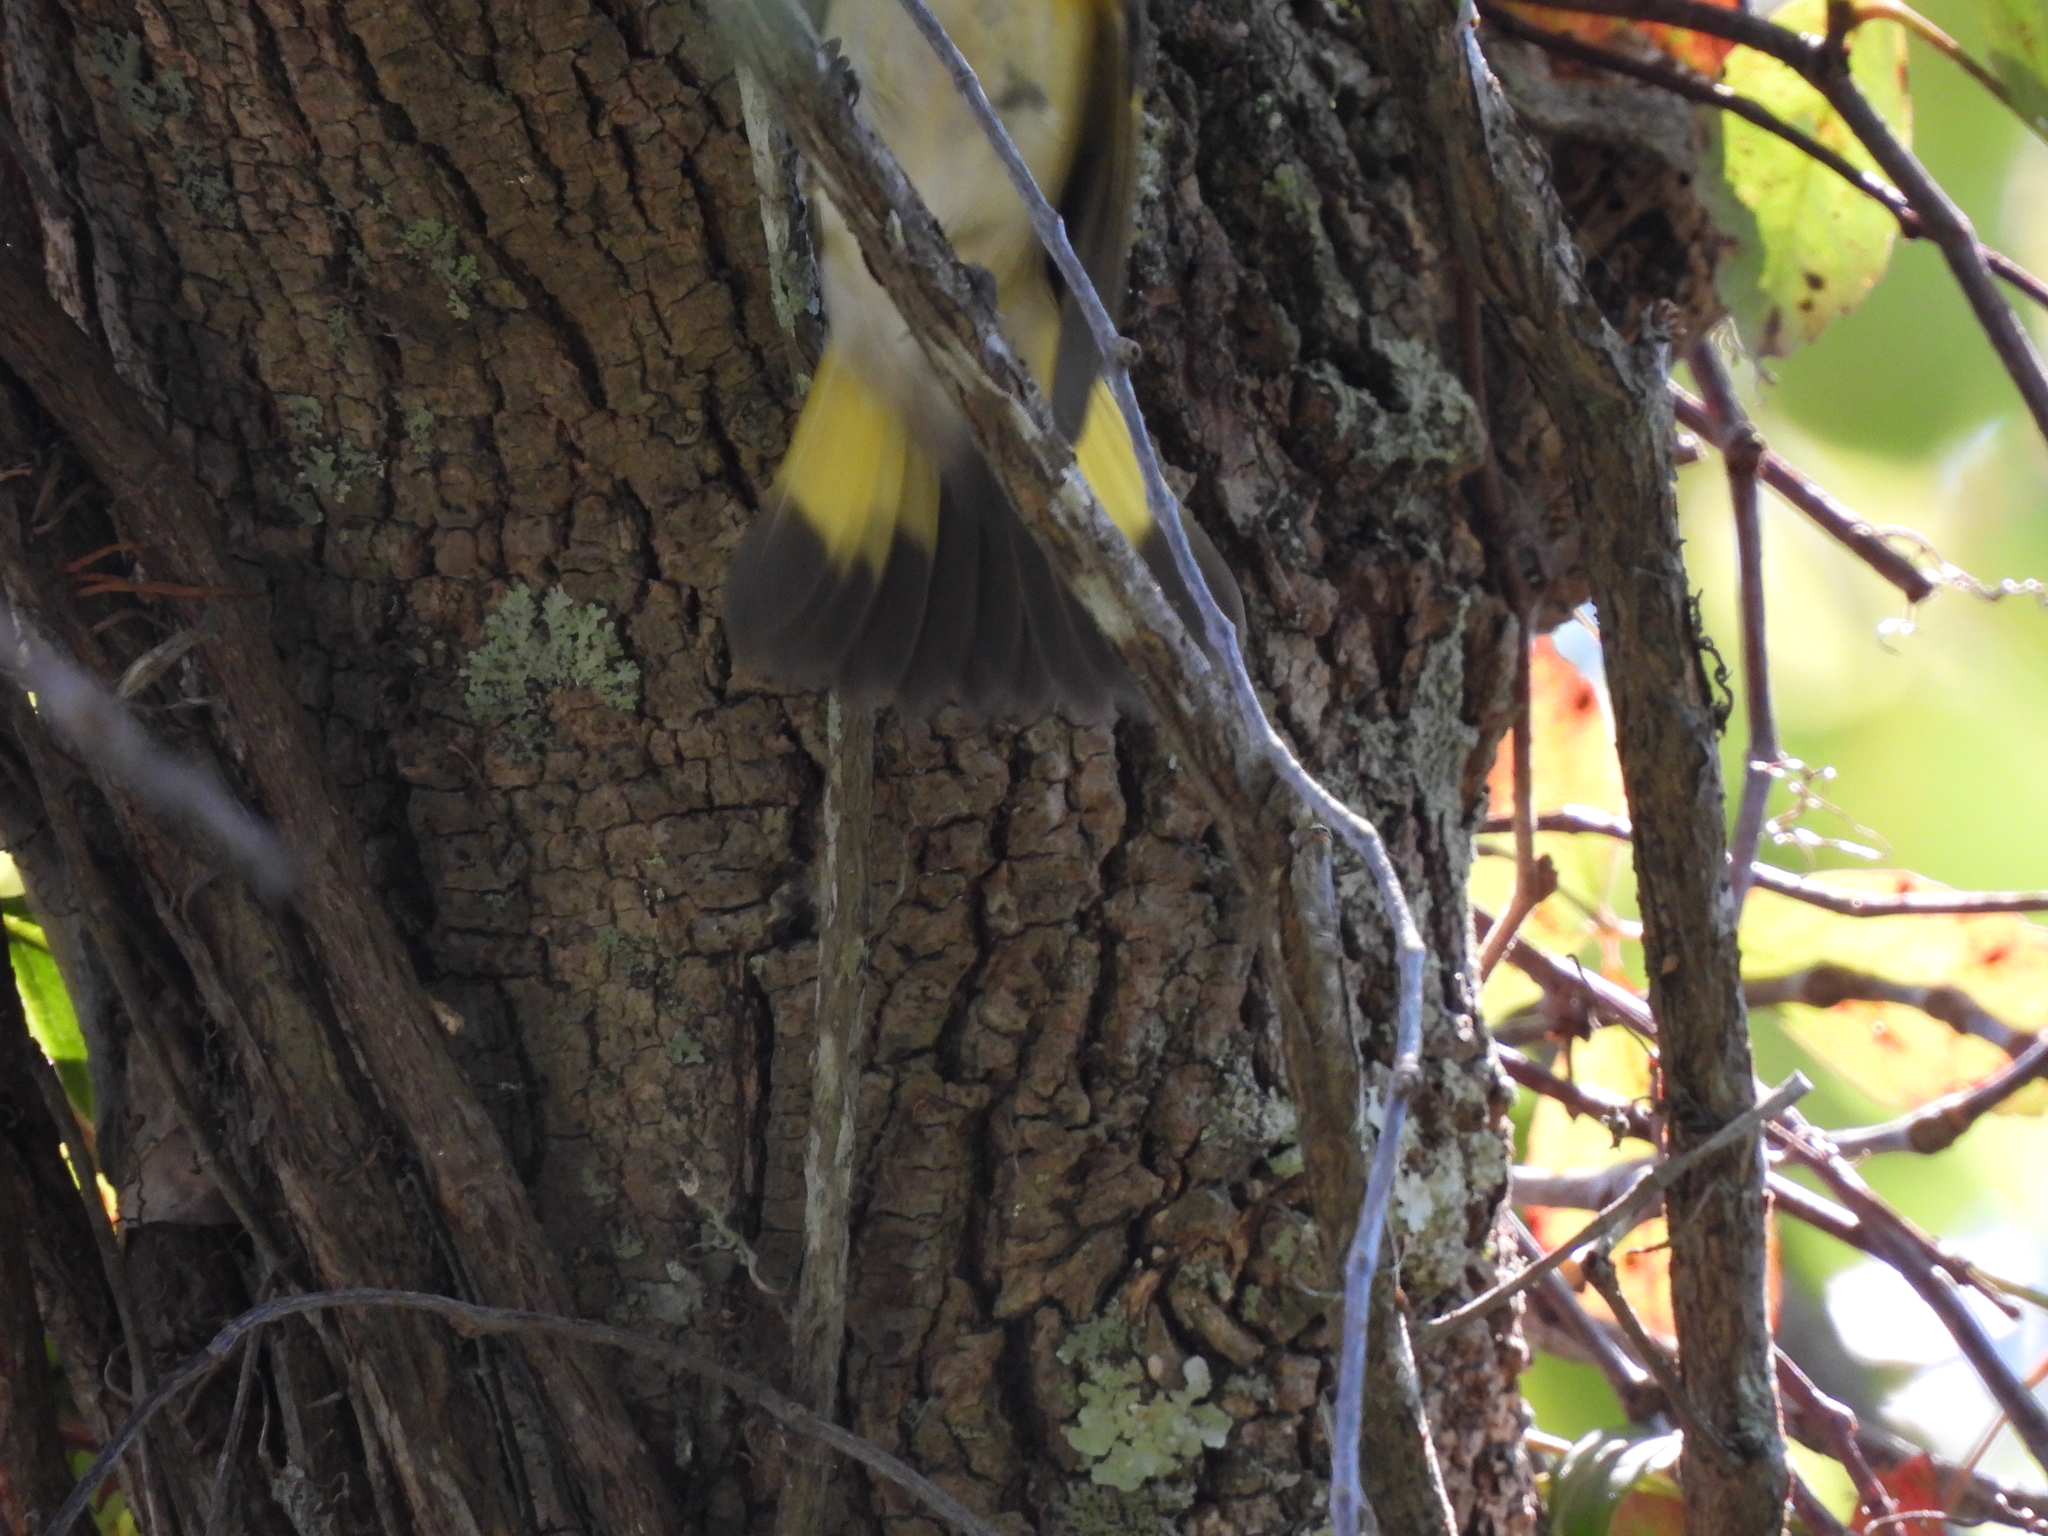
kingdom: Animalia
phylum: Chordata
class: Aves
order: Passeriformes
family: Parulidae
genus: Setophaga
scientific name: Setophaga ruticilla
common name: American redstart
